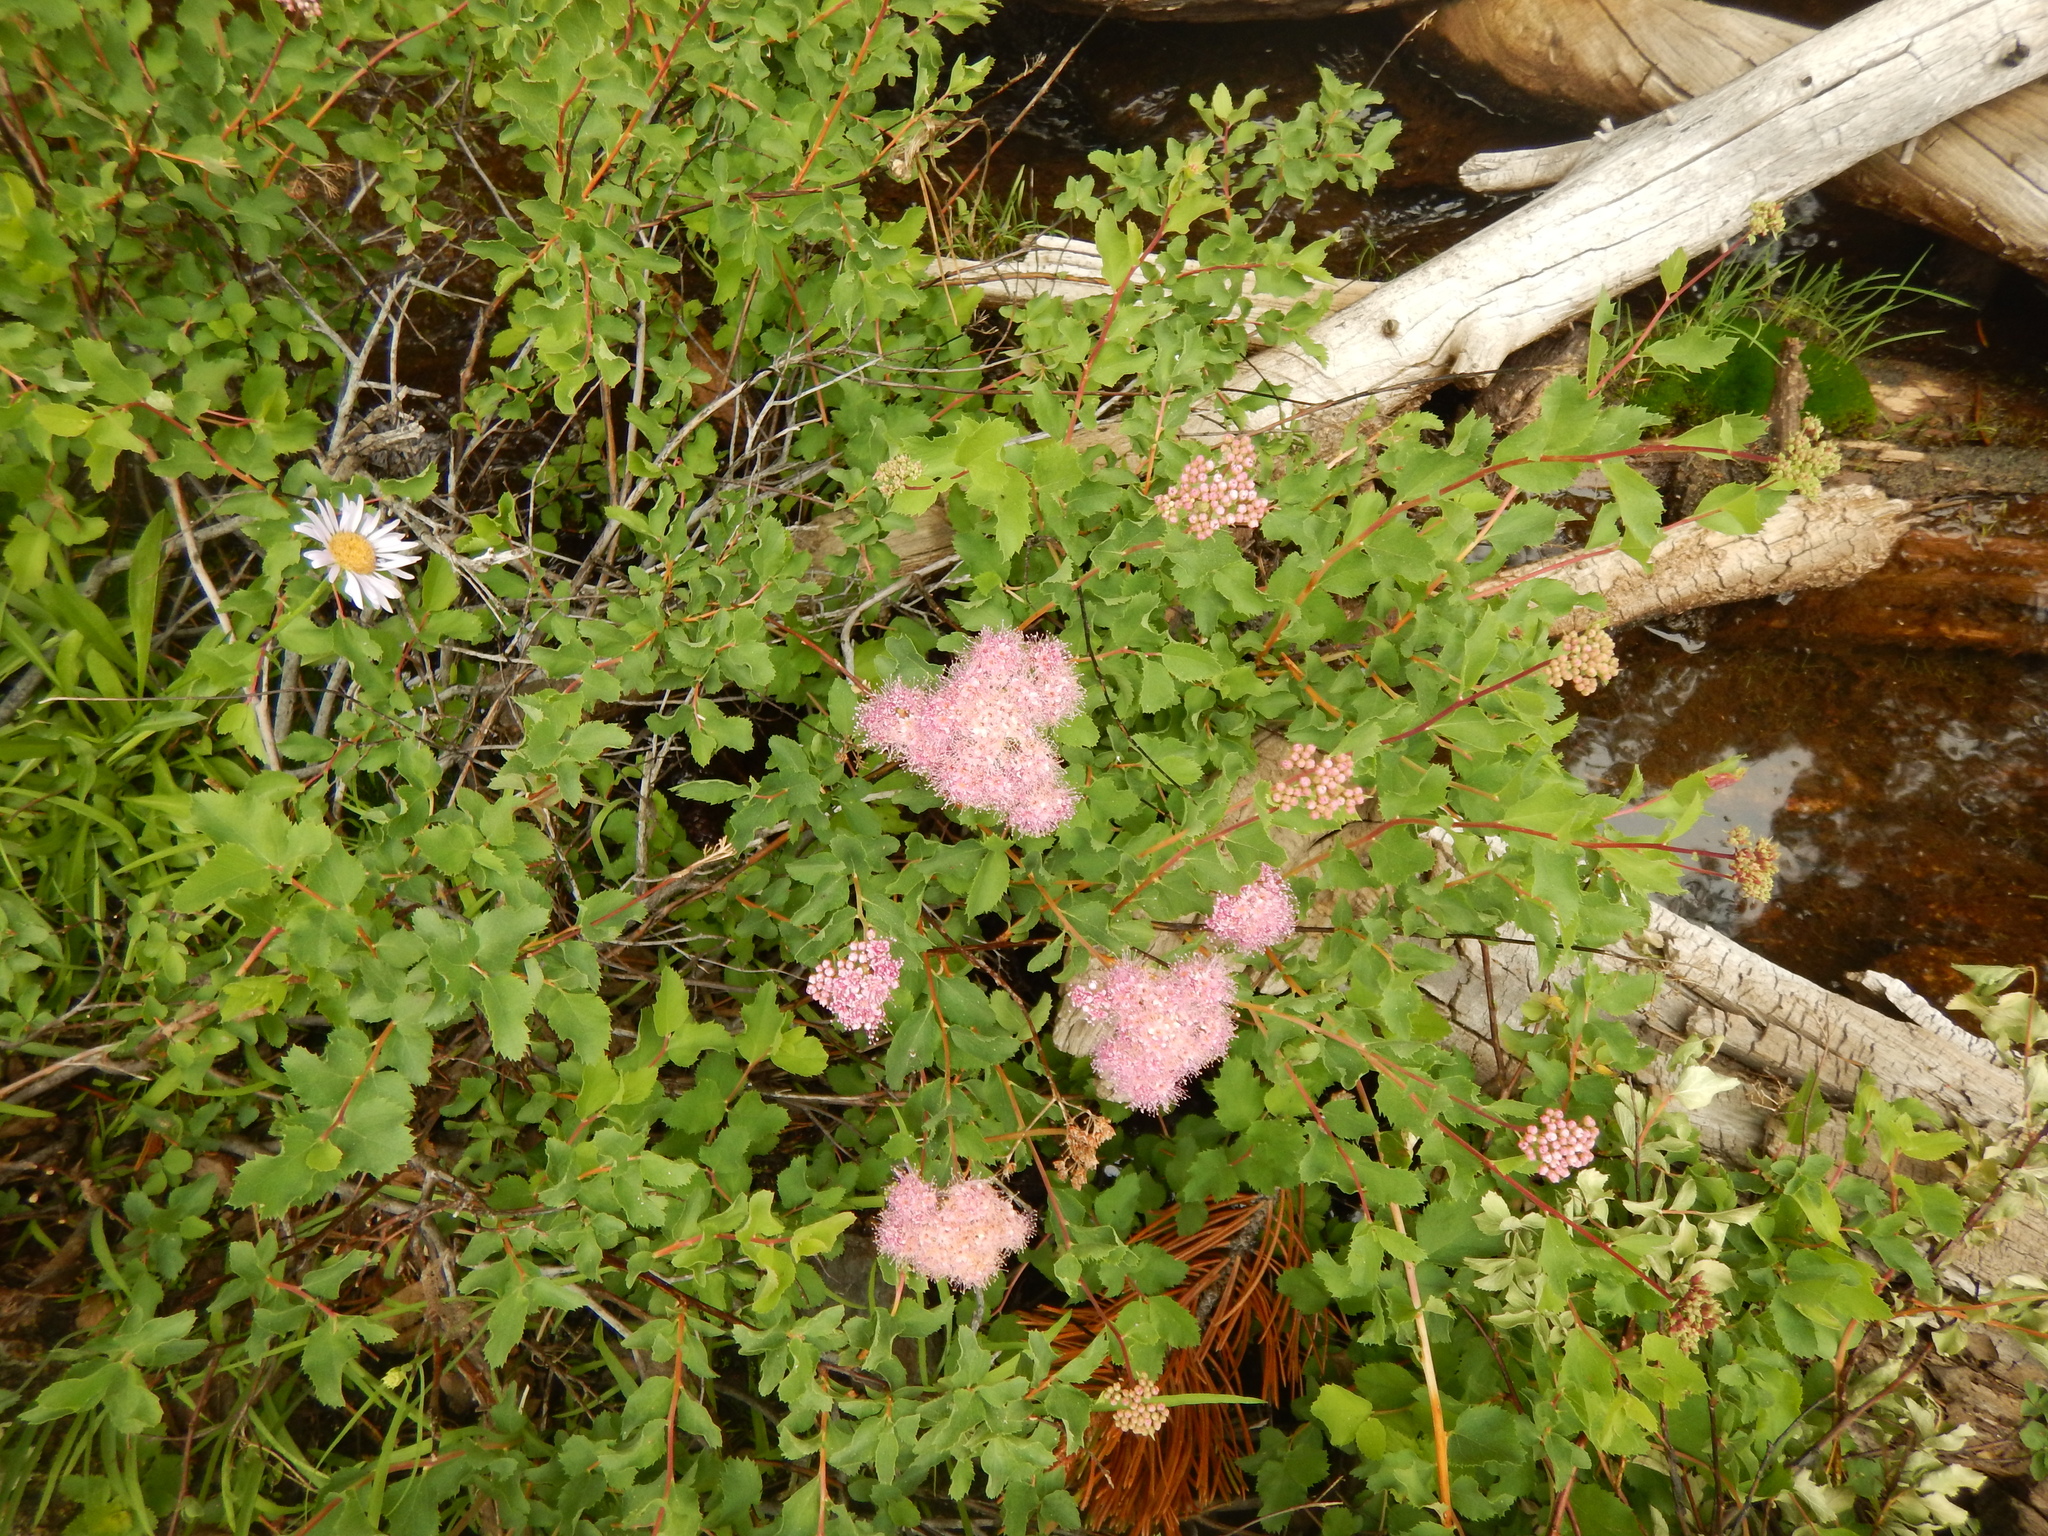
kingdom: Plantae
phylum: Tracheophyta
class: Magnoliopsida
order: Rosales
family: Rosaceae
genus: Spiraea
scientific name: Spiraea splendens
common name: Subalpine meadowsweet
